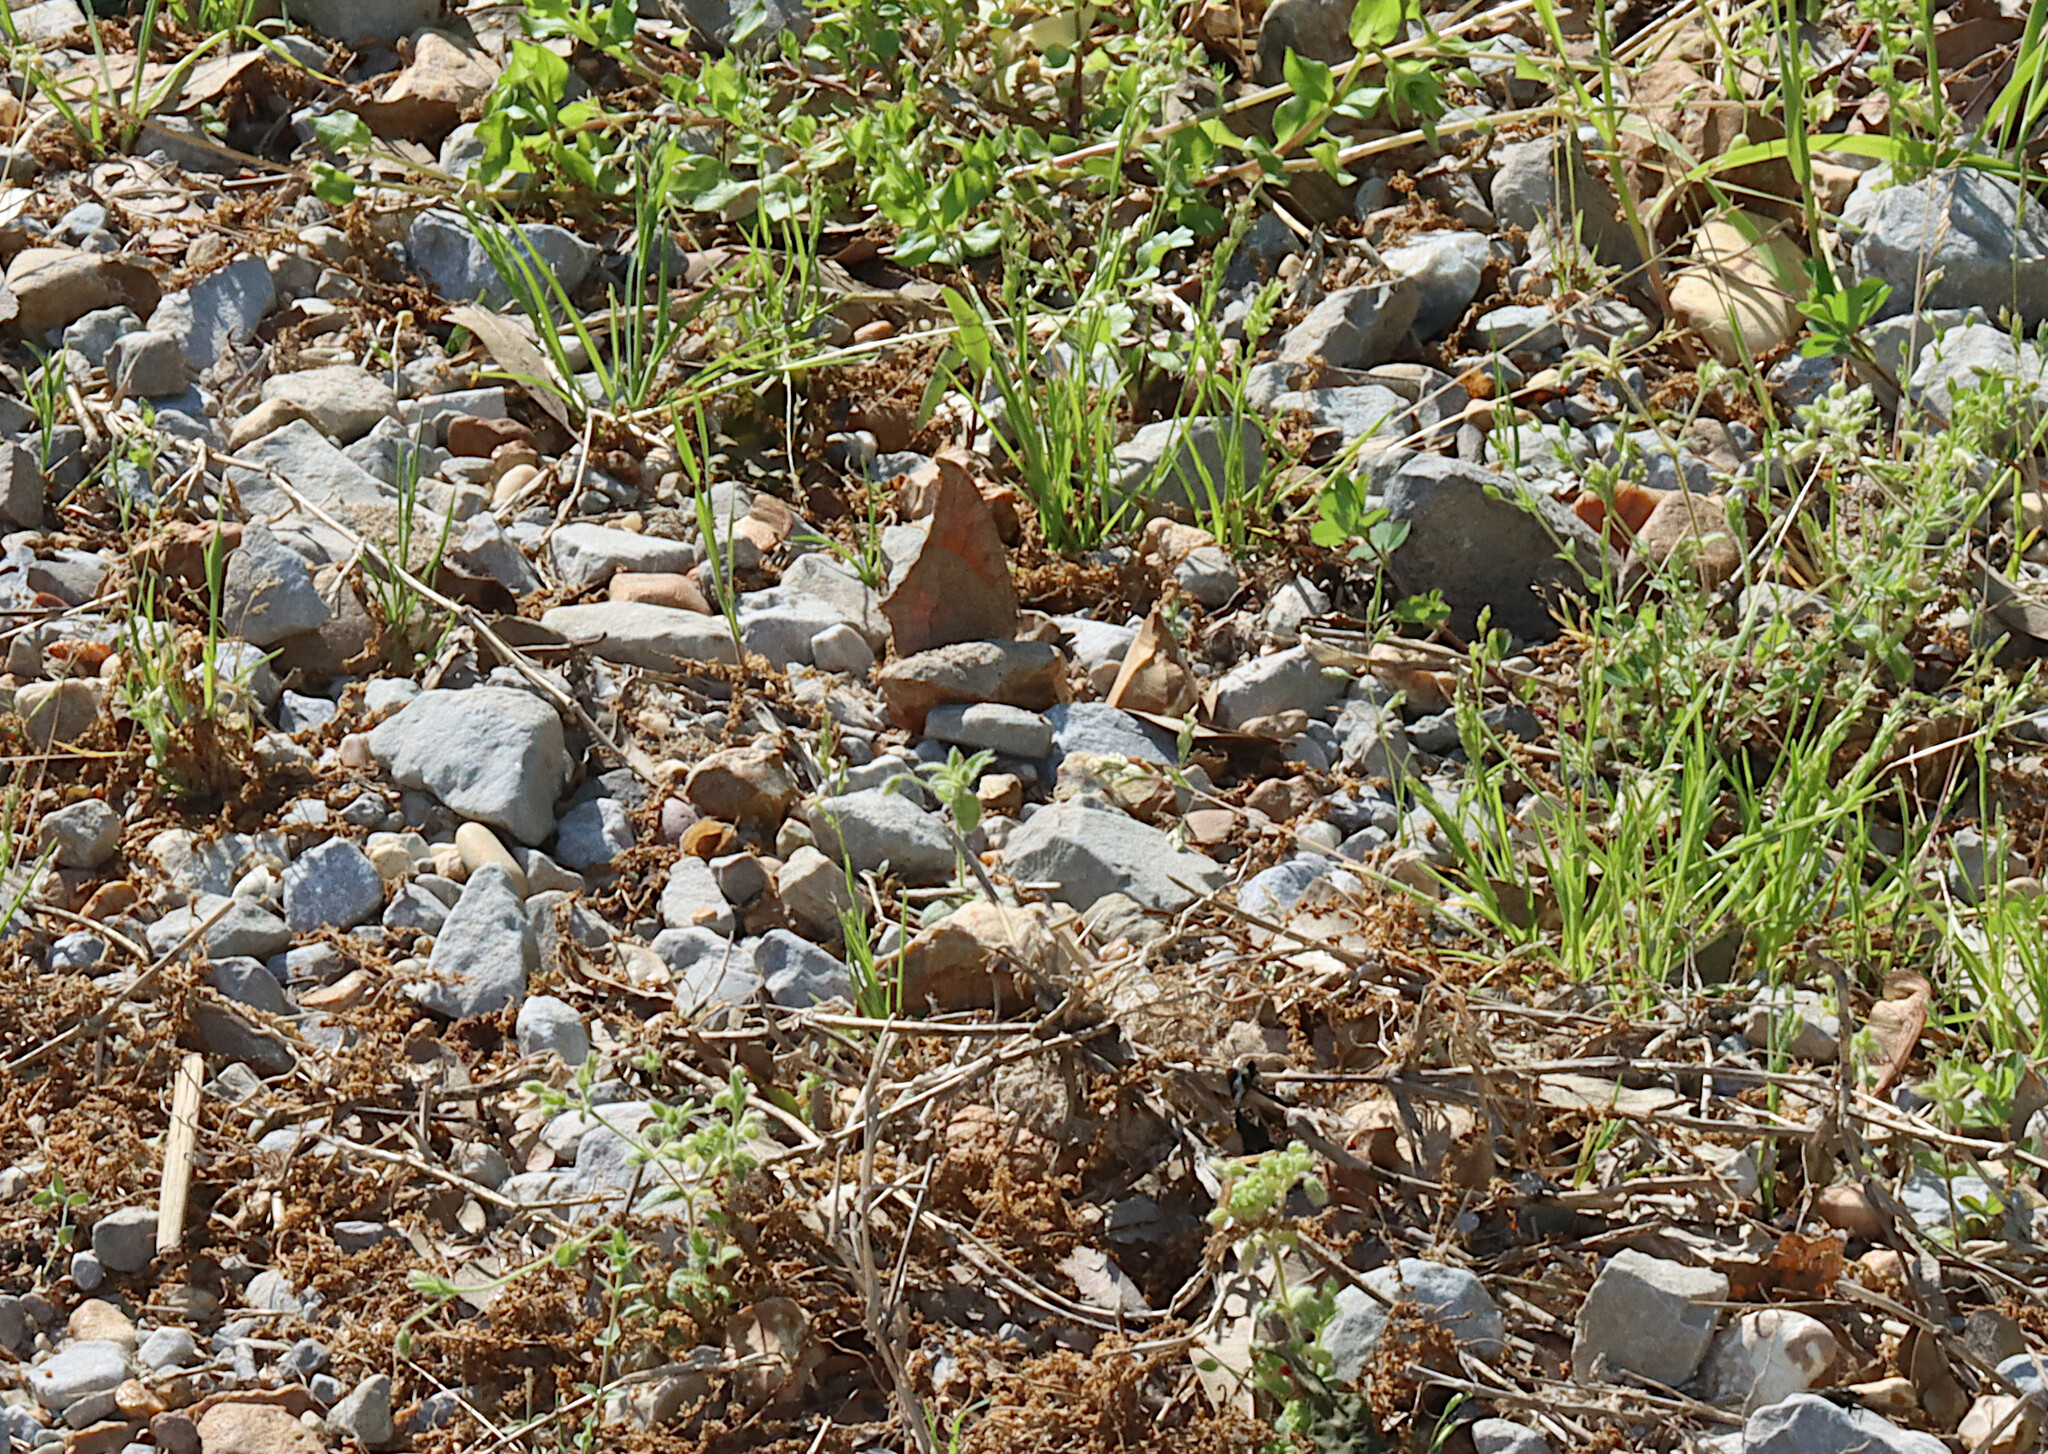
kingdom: Animalia
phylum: Arthropoda
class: Insecta
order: Lepidoptera
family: Nymphalidae
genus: Anaea
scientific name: Anaea andria
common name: Goatweed leafwing
